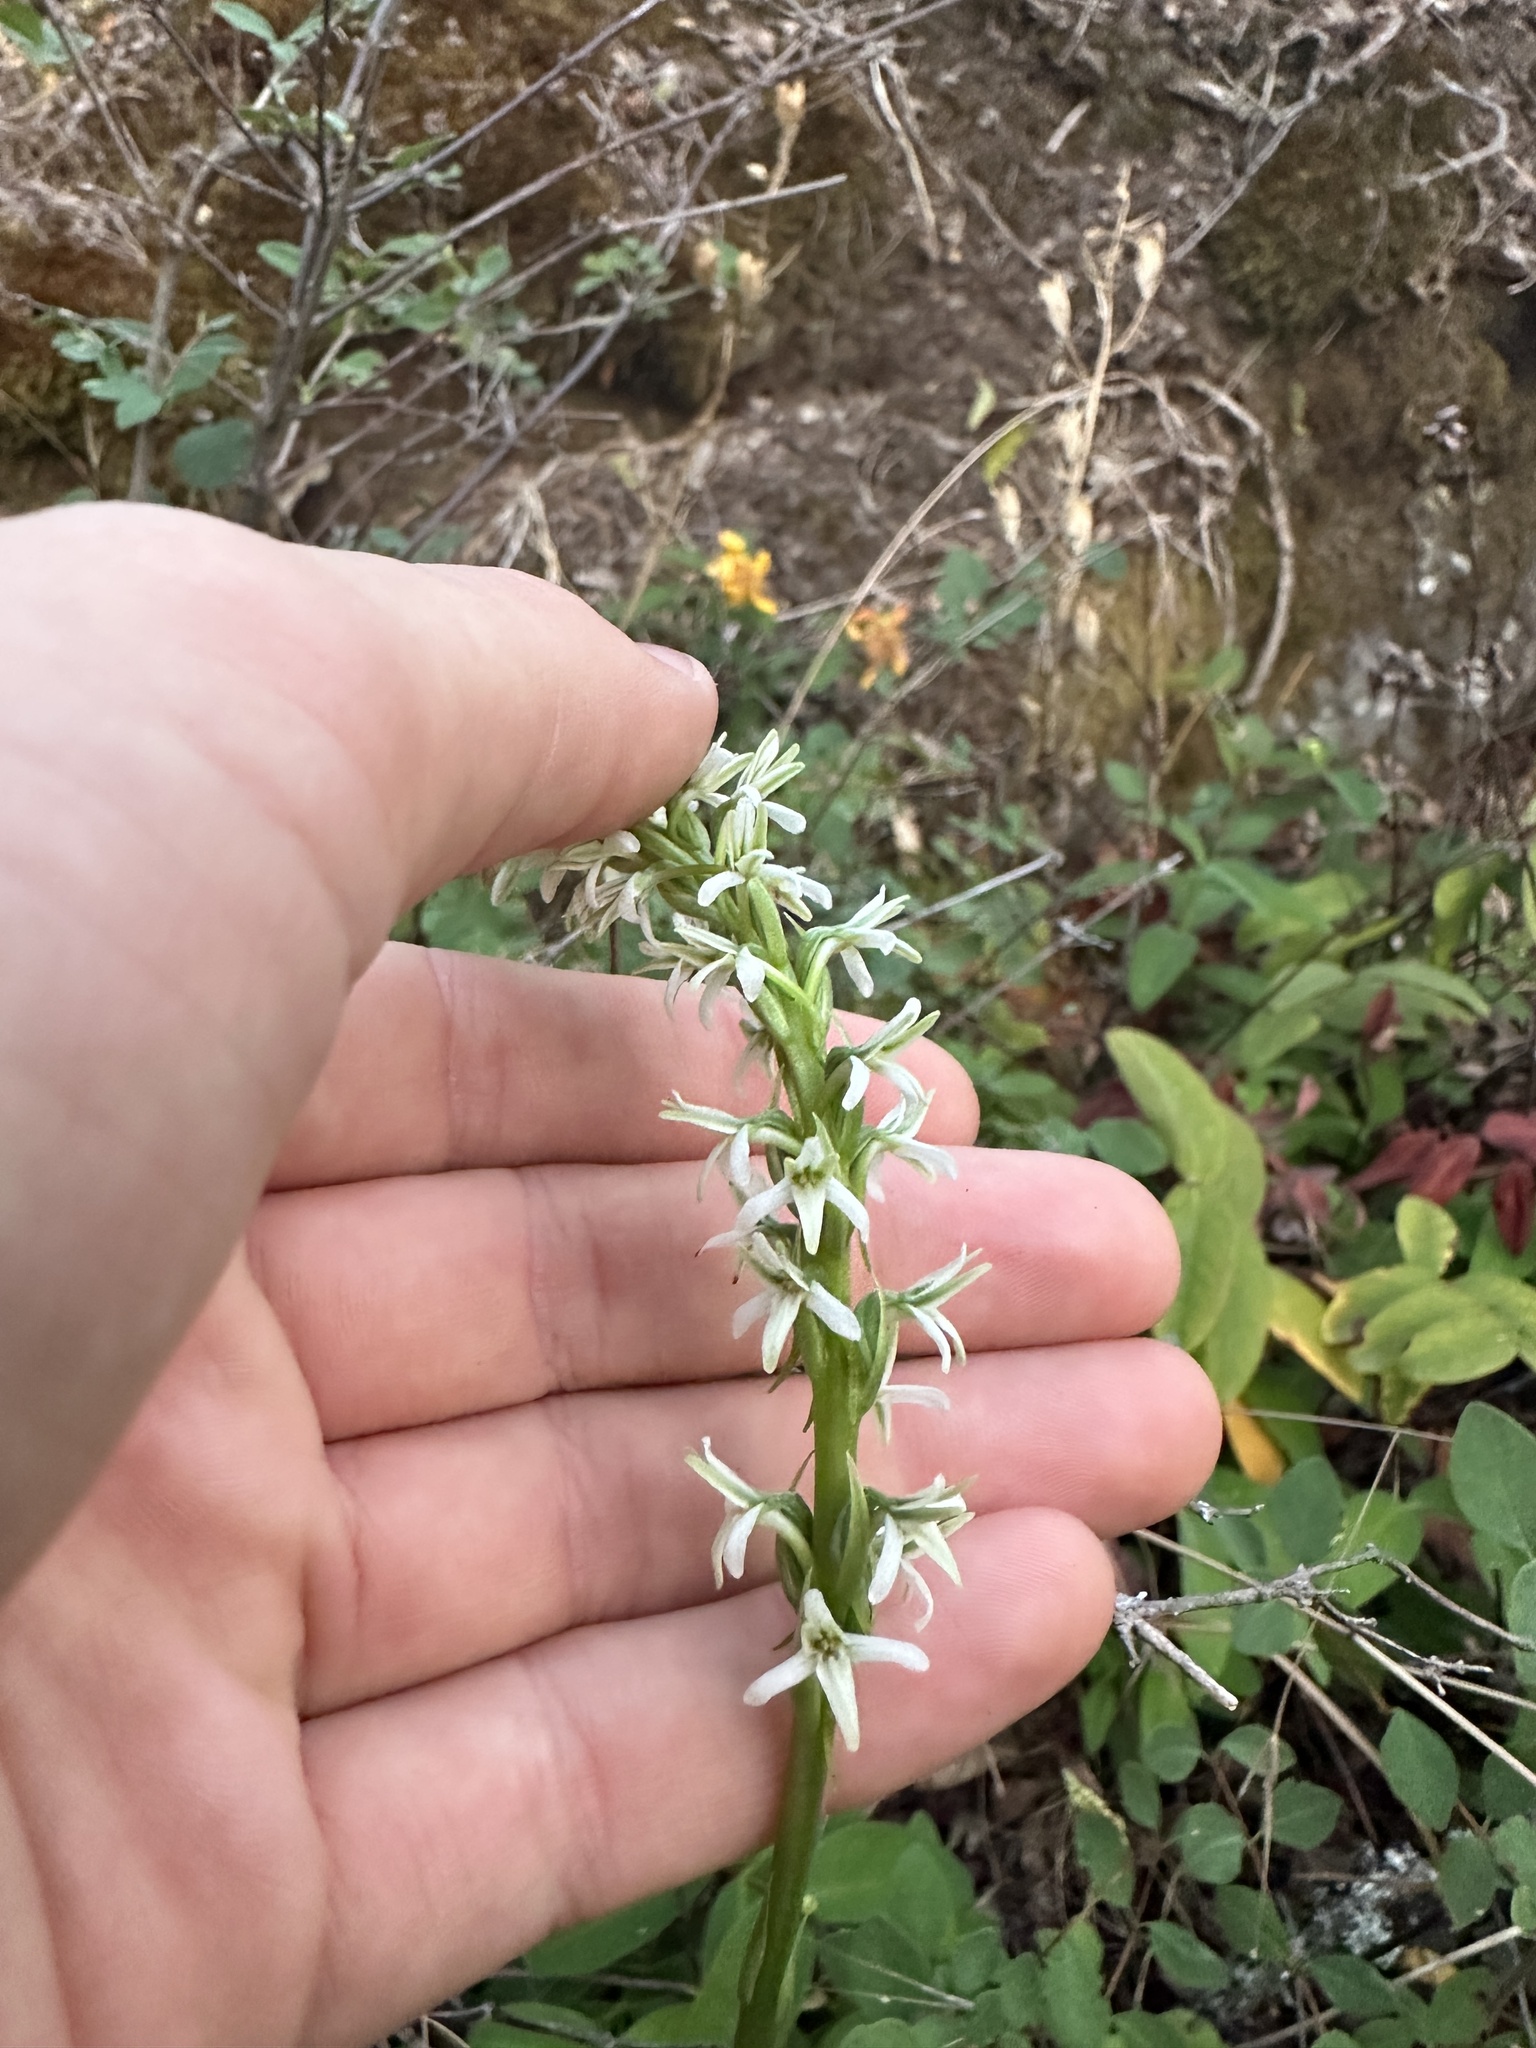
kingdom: Plantae
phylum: Tracheophyta
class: Liliopsida
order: Asparagales
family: Orchidaceae
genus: Platanthera
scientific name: Platanthera elegans
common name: Coast piperia
